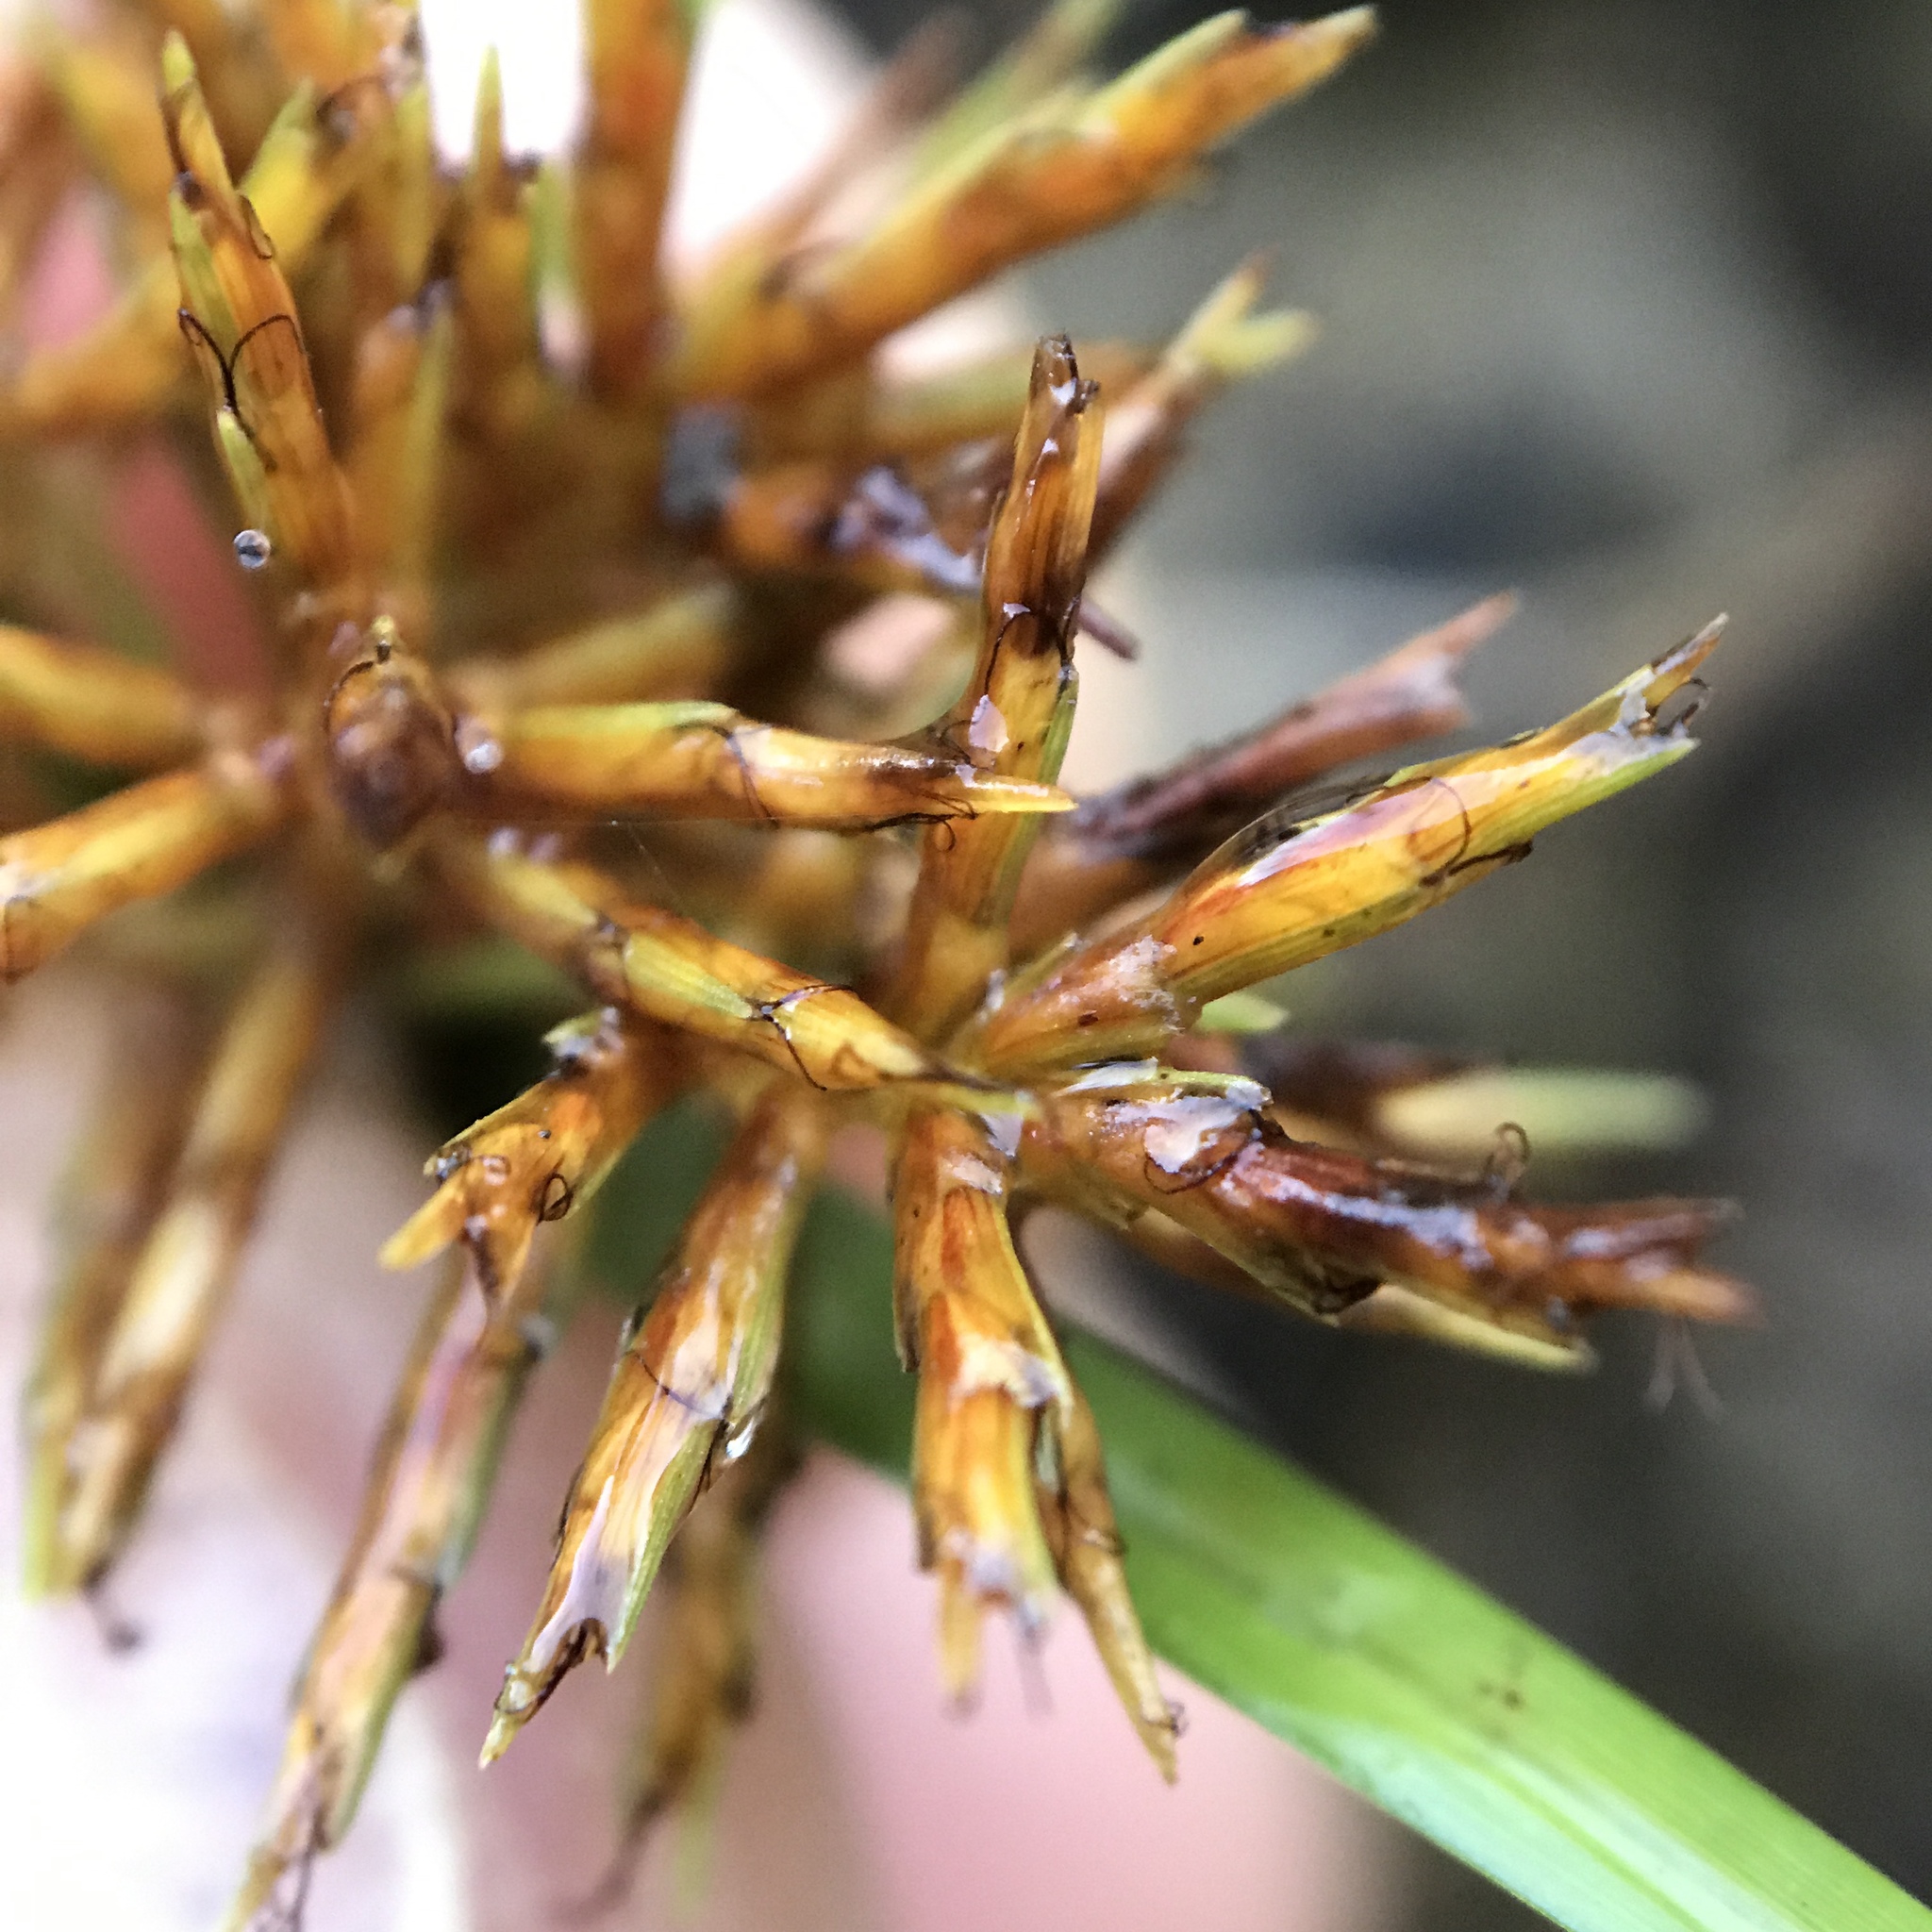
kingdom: Plantae
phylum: Tracheophyta
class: Liliopsida
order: Poales
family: Cyperaceae
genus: Cyperus
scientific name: Cyperus odoratus
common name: Fragrant flatsedge
